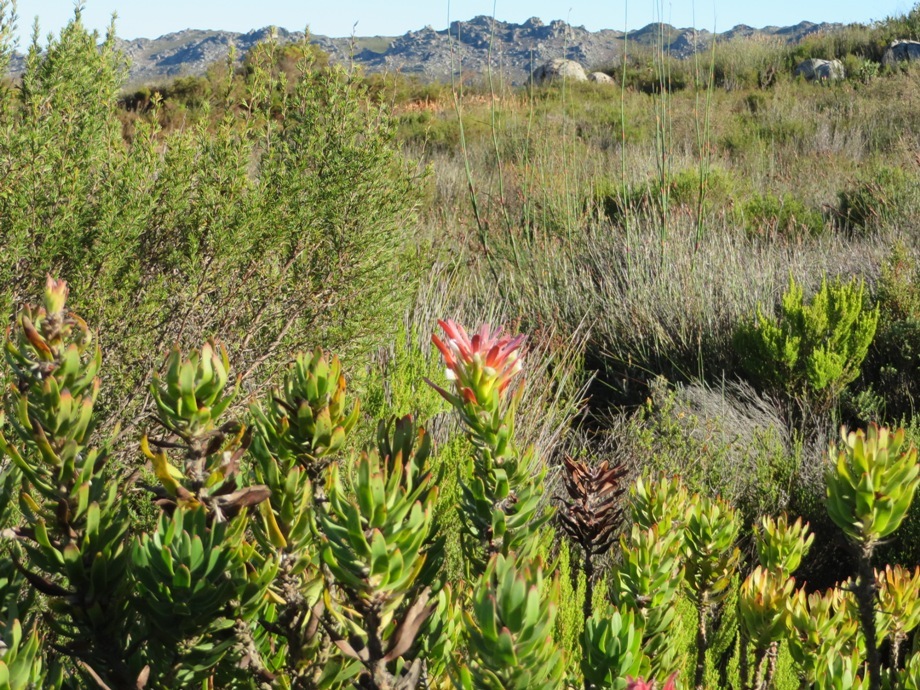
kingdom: Plantae
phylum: Tracheophyta
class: Magnoliopsida
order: Proteales
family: Proteaceae
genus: Mimetes
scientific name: Mimetes cucullatus
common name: Common pagoda
